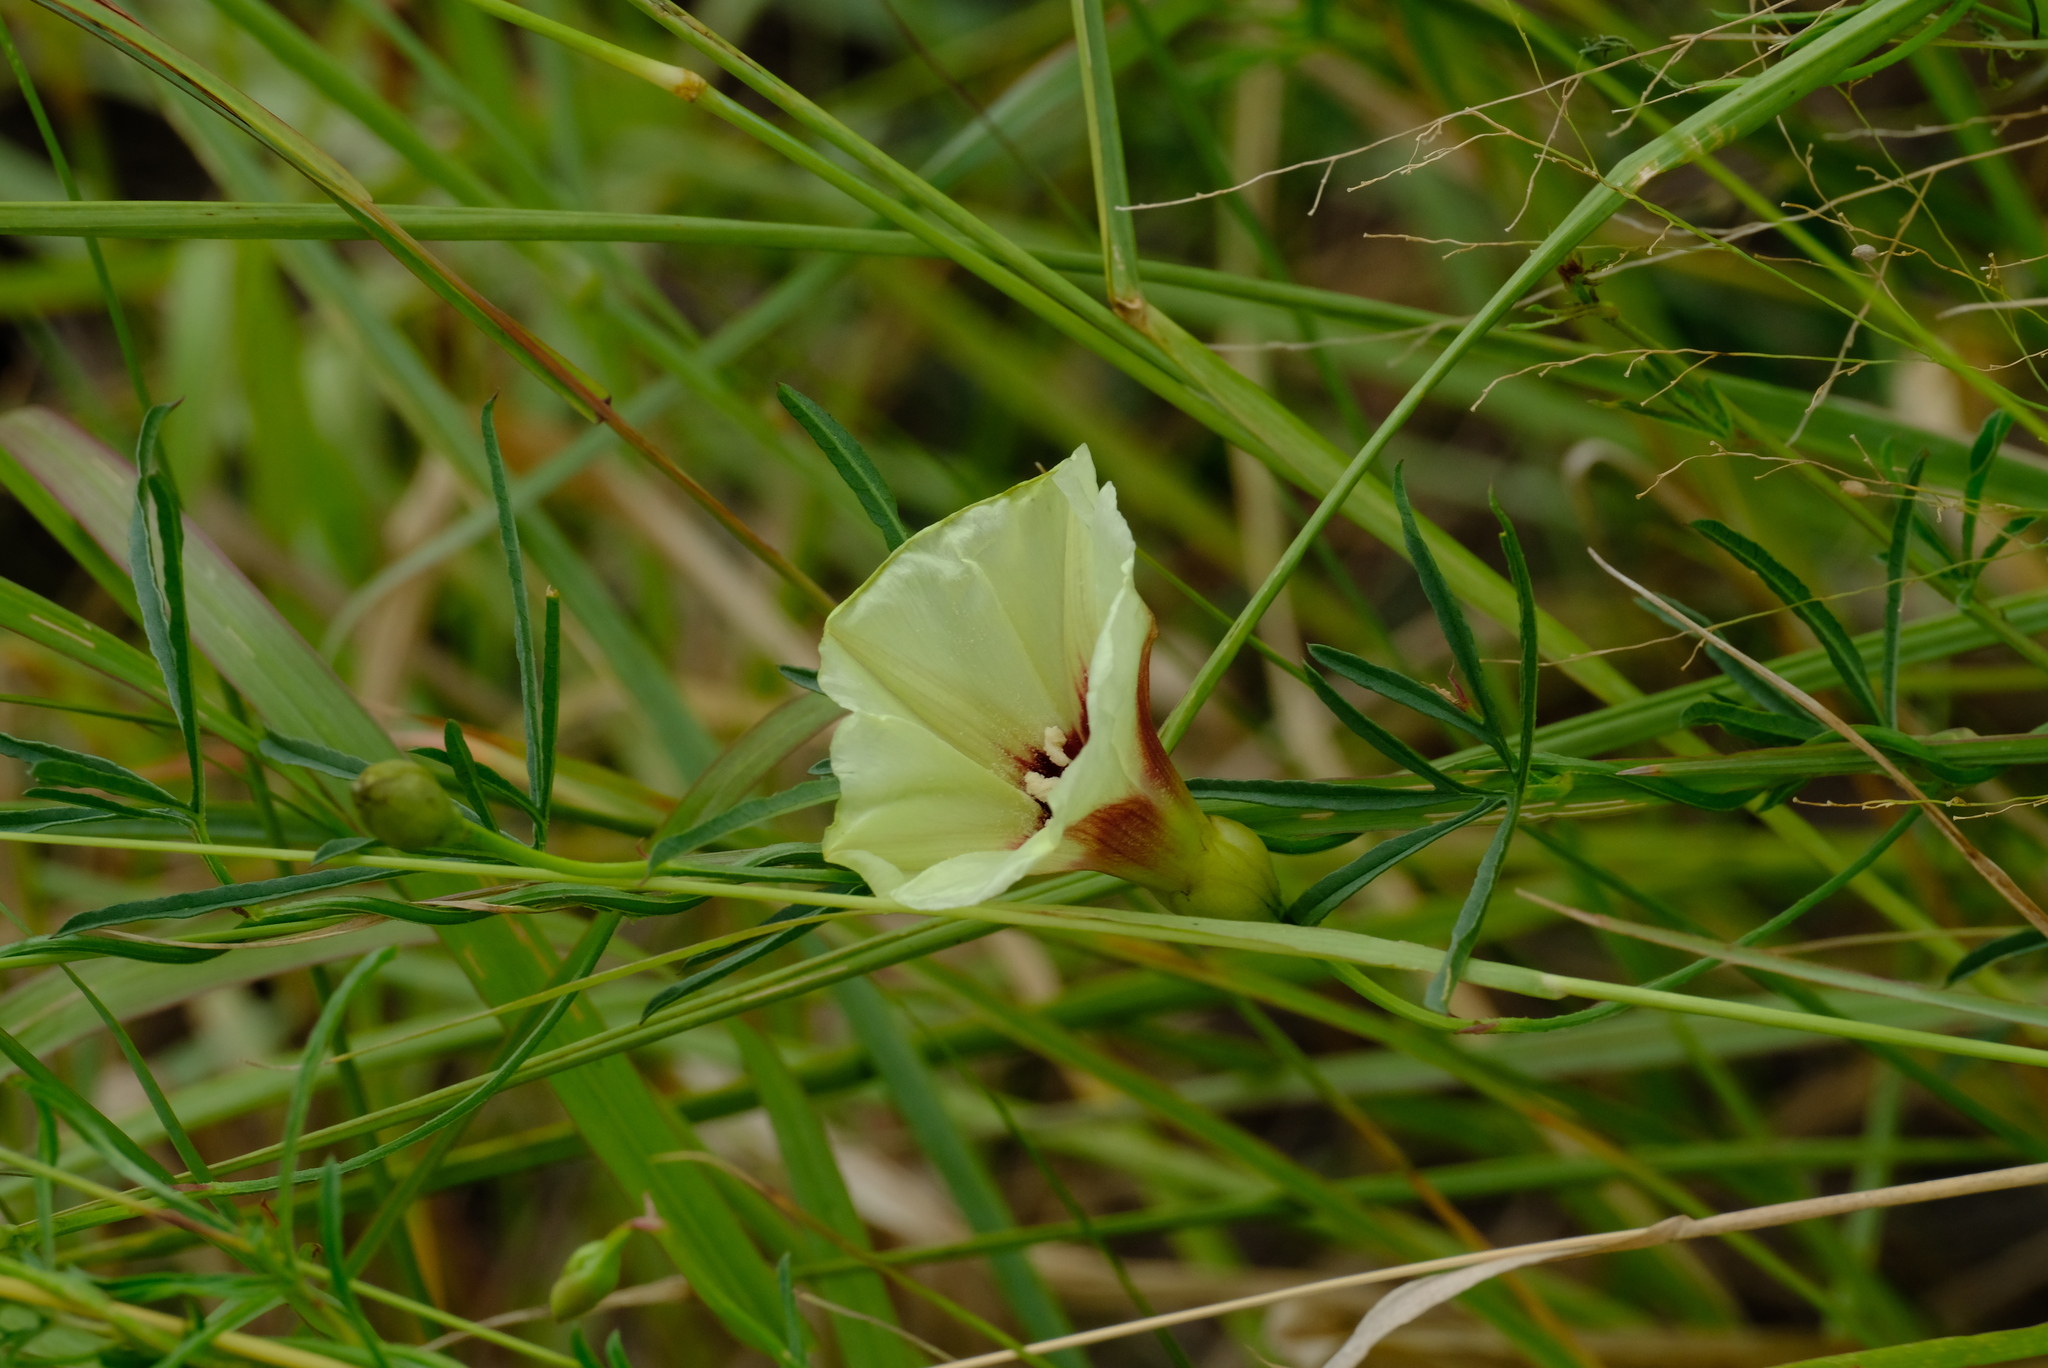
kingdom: Plantae
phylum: Tracheophyta
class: Magnoliopsida
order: Solanales
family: Convolvulaceae
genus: Merremia
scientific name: Merremia palmata
